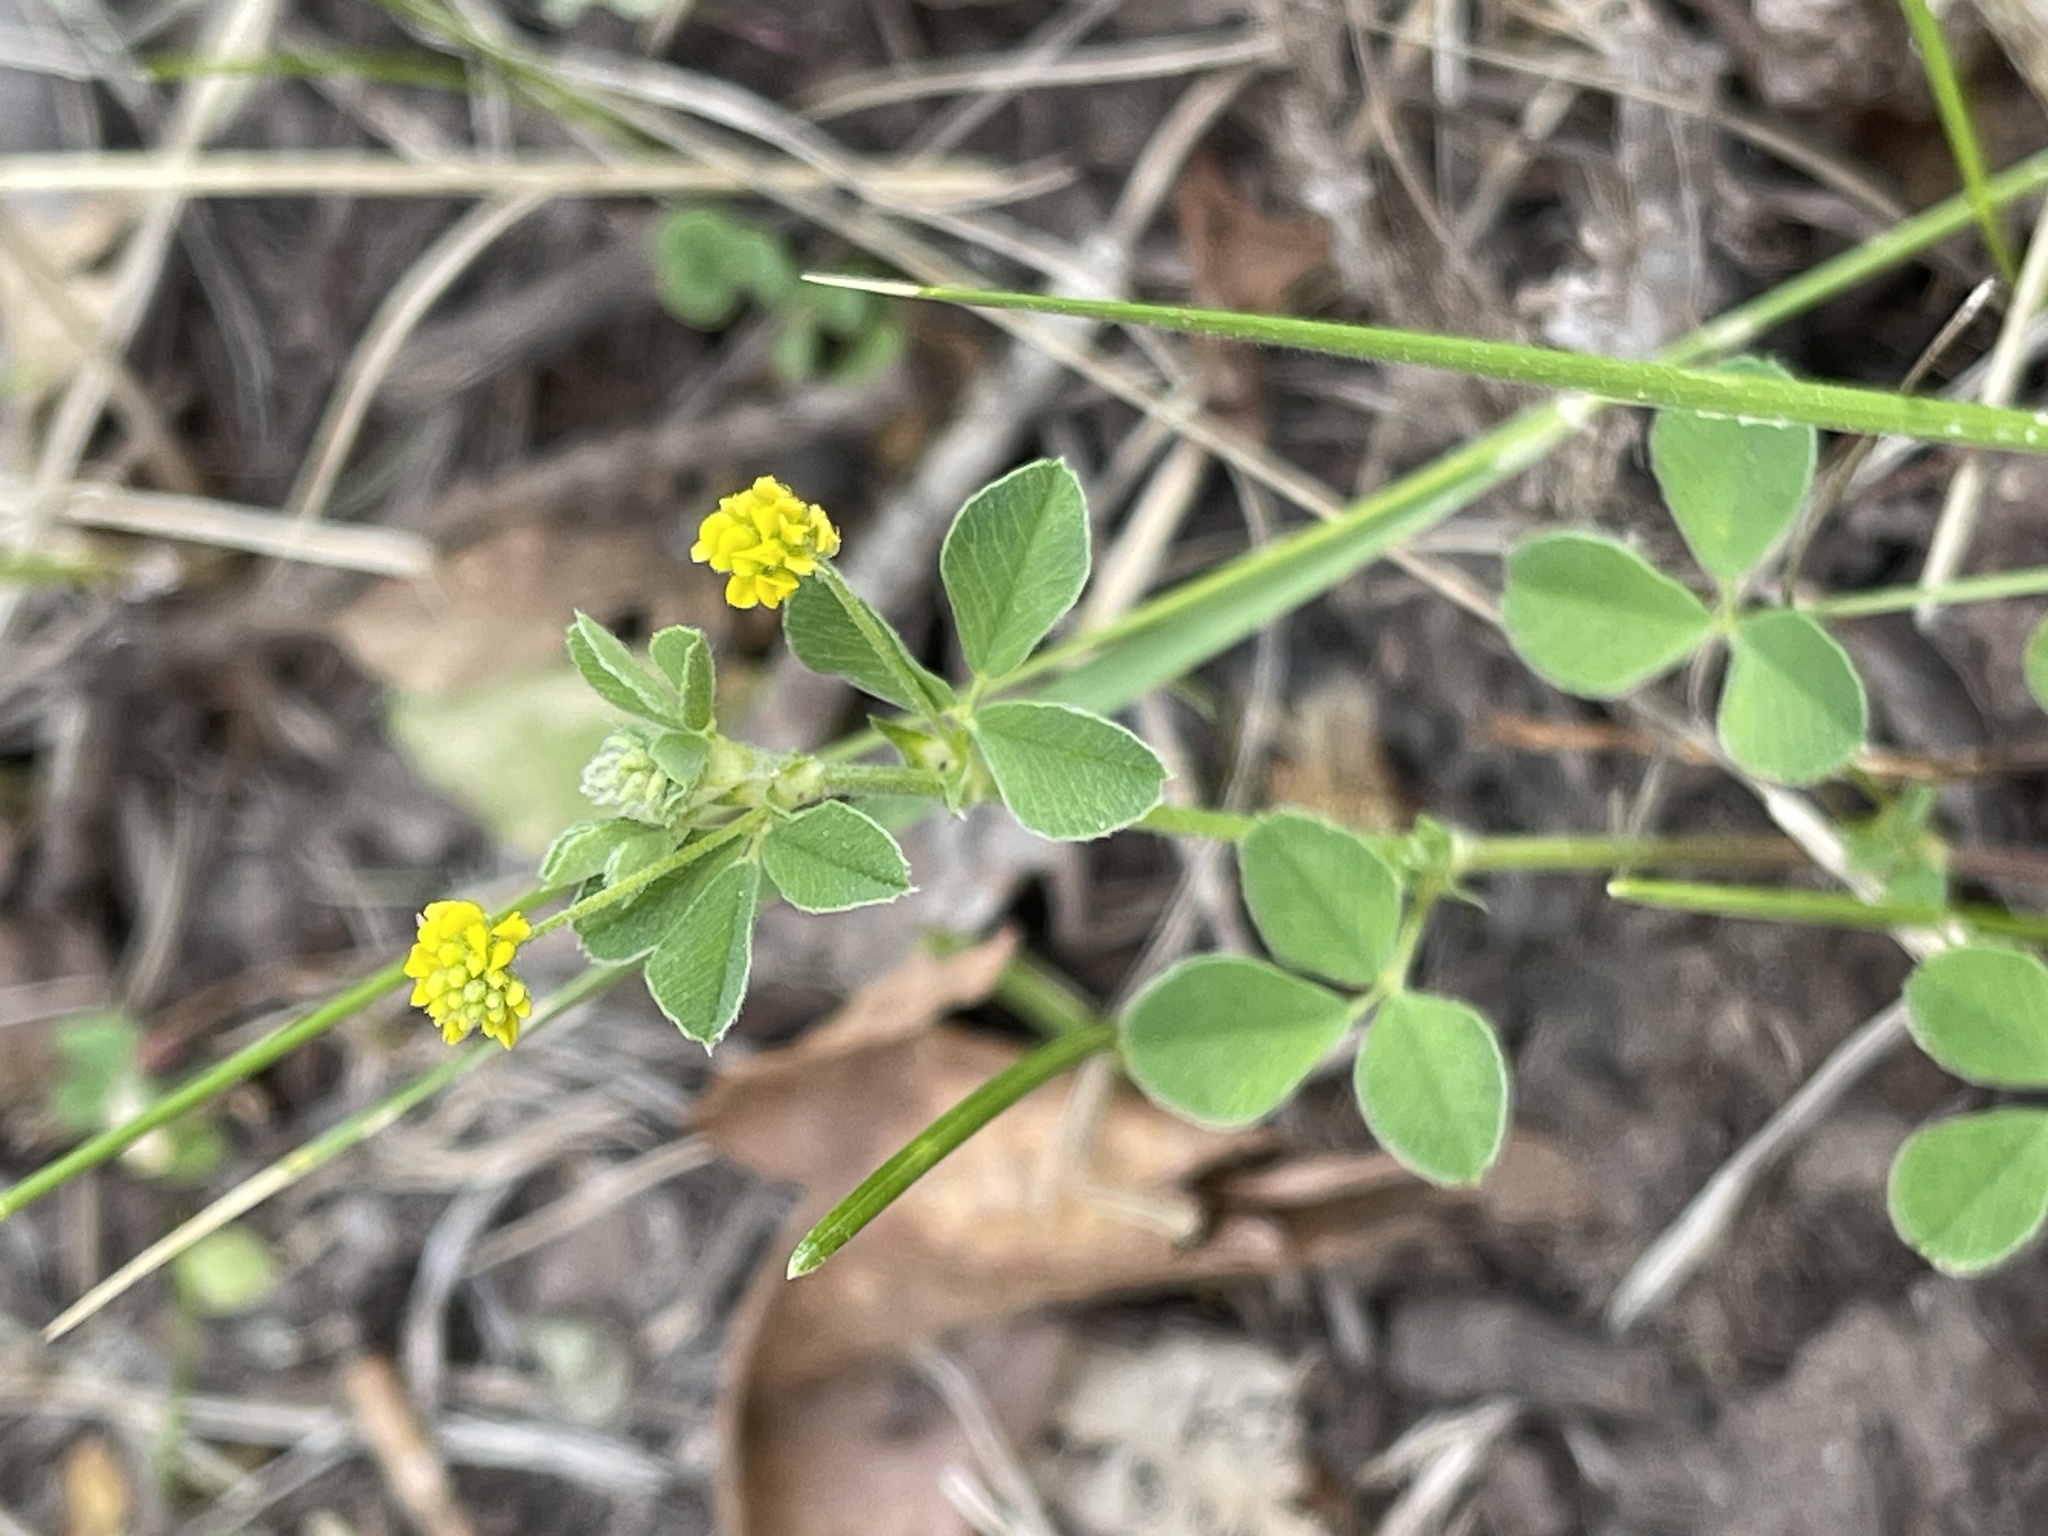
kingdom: Plantae
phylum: Tracheophyta
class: Magnoliopsida
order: Fabales
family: Fabaceae
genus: Medicago
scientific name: Medicago lupulina
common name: Black medick
